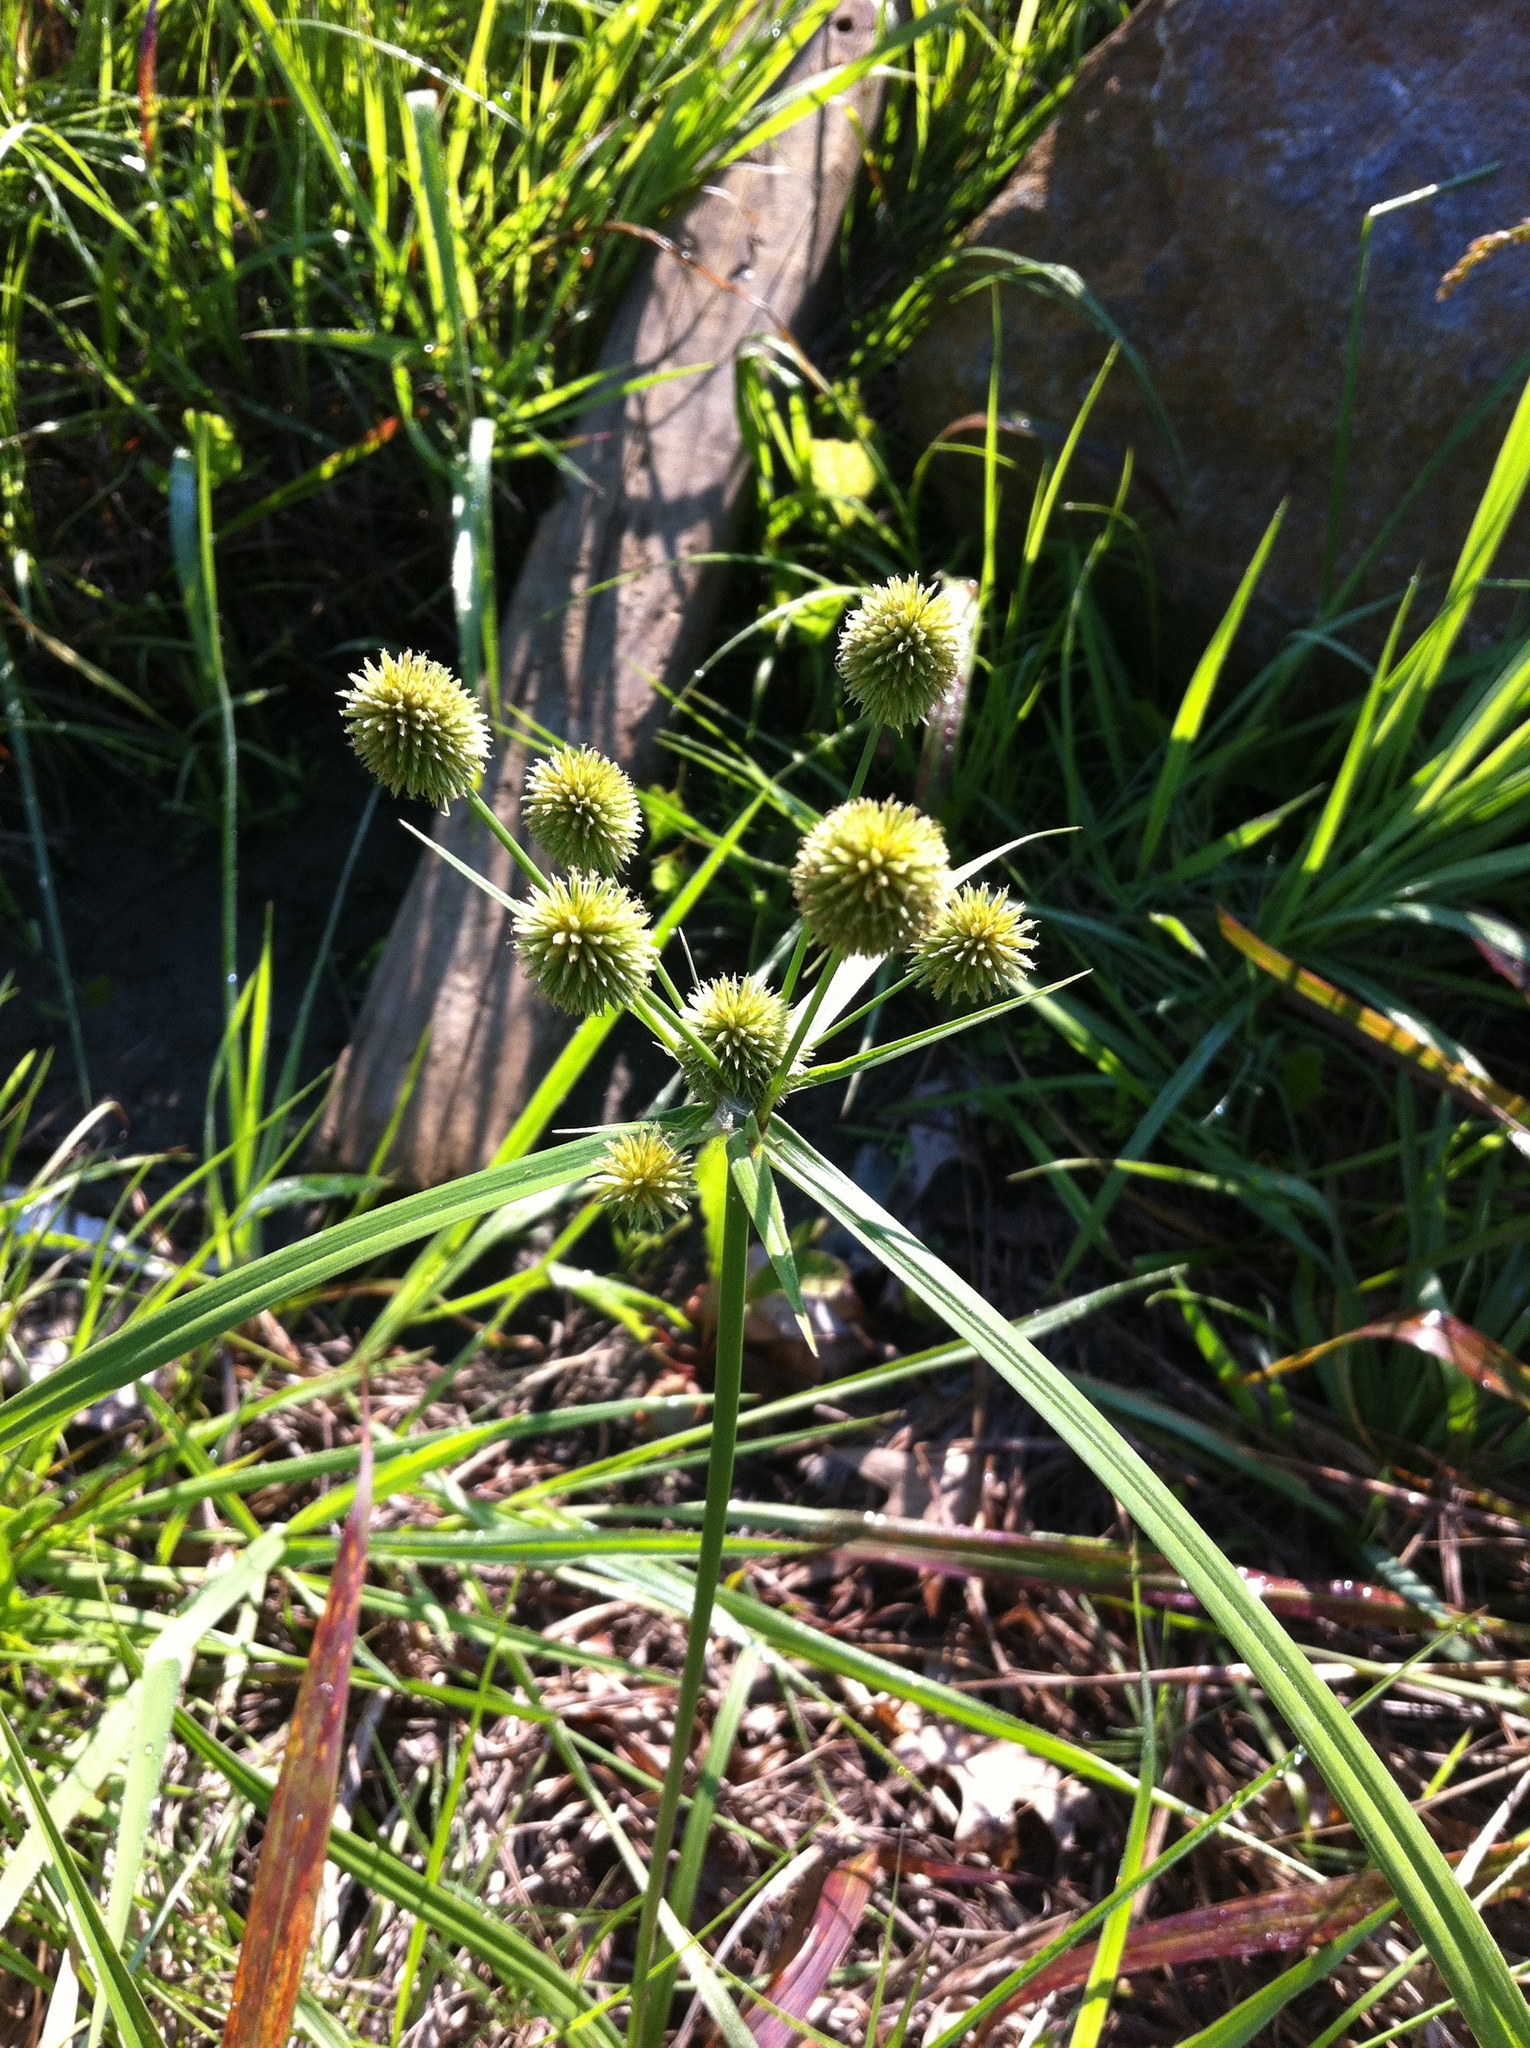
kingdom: Plantae
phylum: Tracheophyta
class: Liliopsida
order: Poales
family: Cyperaceae
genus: Cyperus
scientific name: Cyperus echinatus
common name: Teasel sedge
